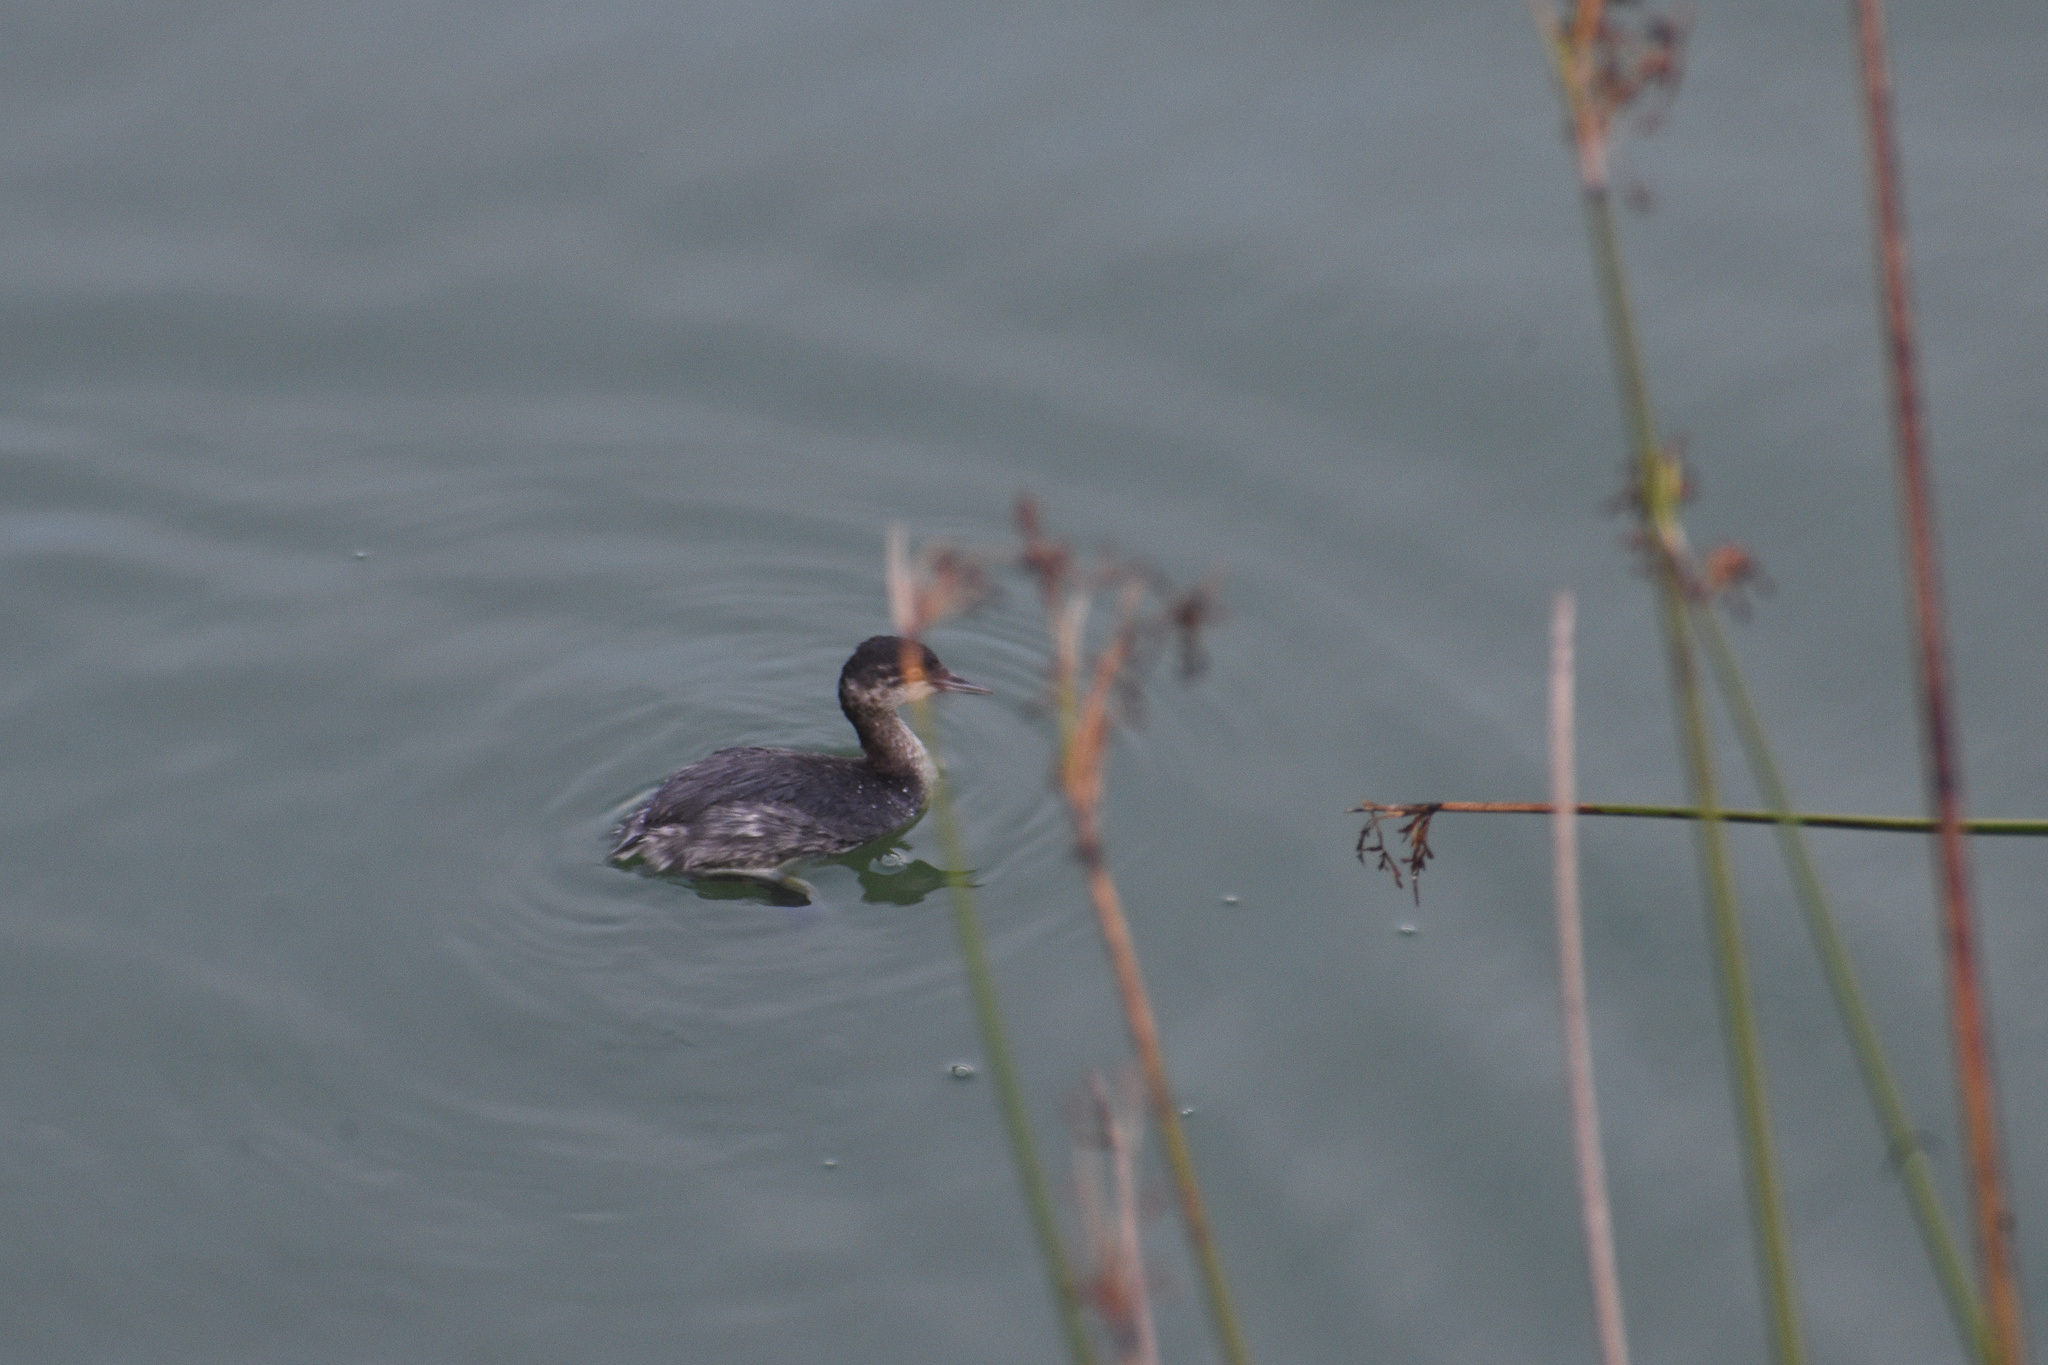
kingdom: Animalia
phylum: Chordata
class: Aves
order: Podicipediformes
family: Podicipedidae
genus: Podiceps
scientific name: Podiceps nigricollis
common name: Black-necked grebe
